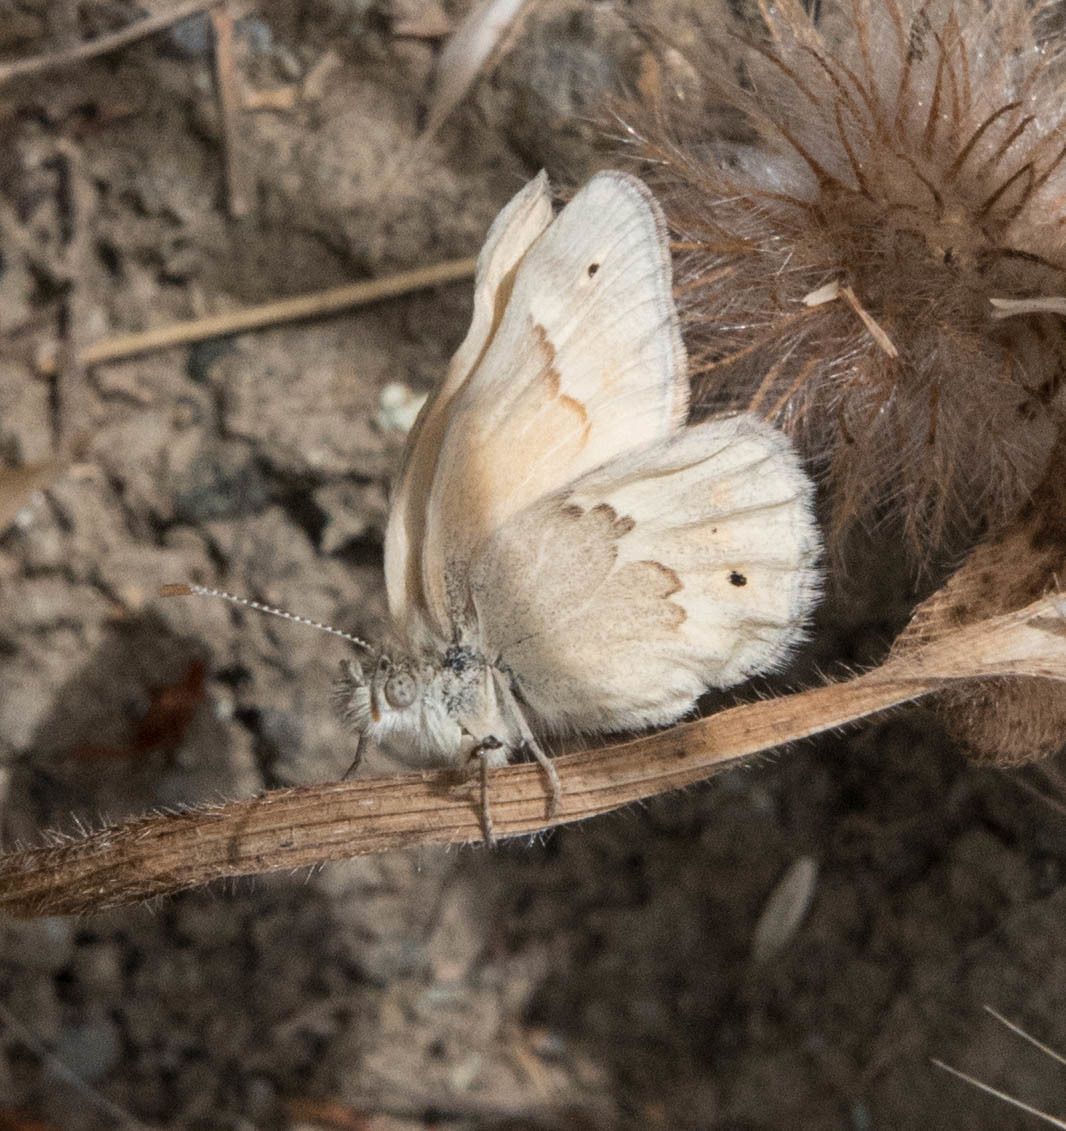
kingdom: Animalia
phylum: Arthropoda
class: Insecta
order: Lepidoptera
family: Nymphalidae
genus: Coenonympha
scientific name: Coenonympha california
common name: Common ringlet
